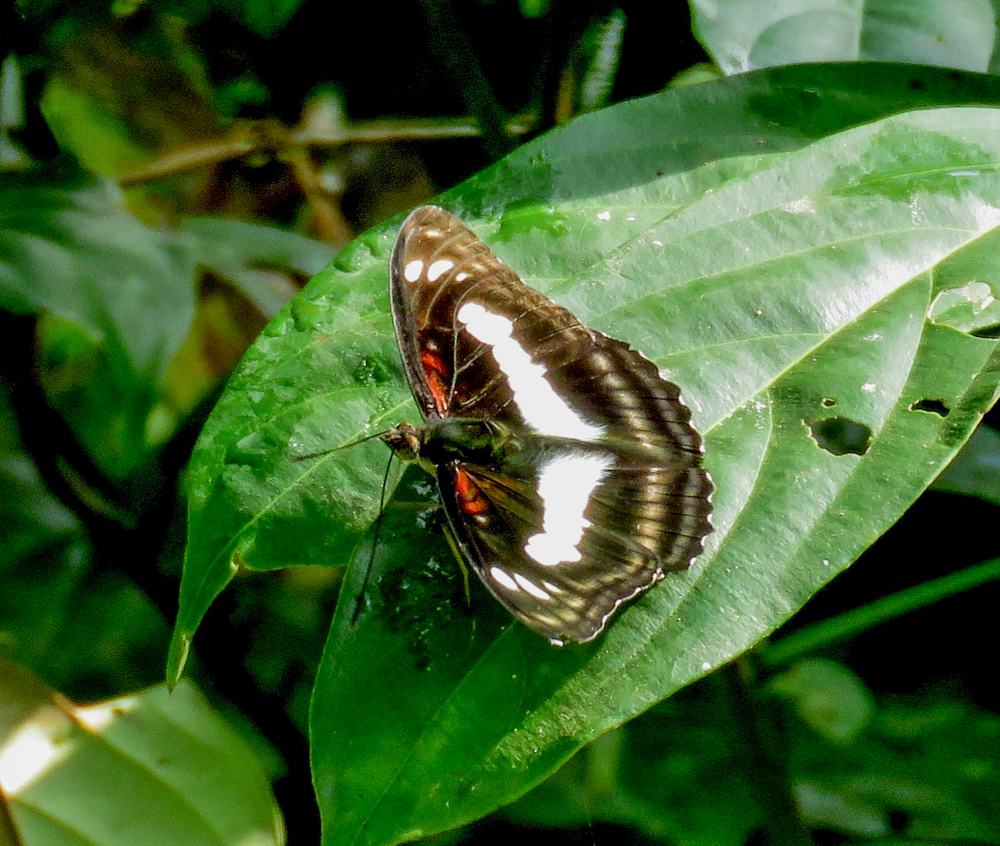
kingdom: Animalia
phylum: Arthropoda
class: Insecta
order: Lepidoptera
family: Nymphalidae
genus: Parathyma
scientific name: Parathyma selenophora
